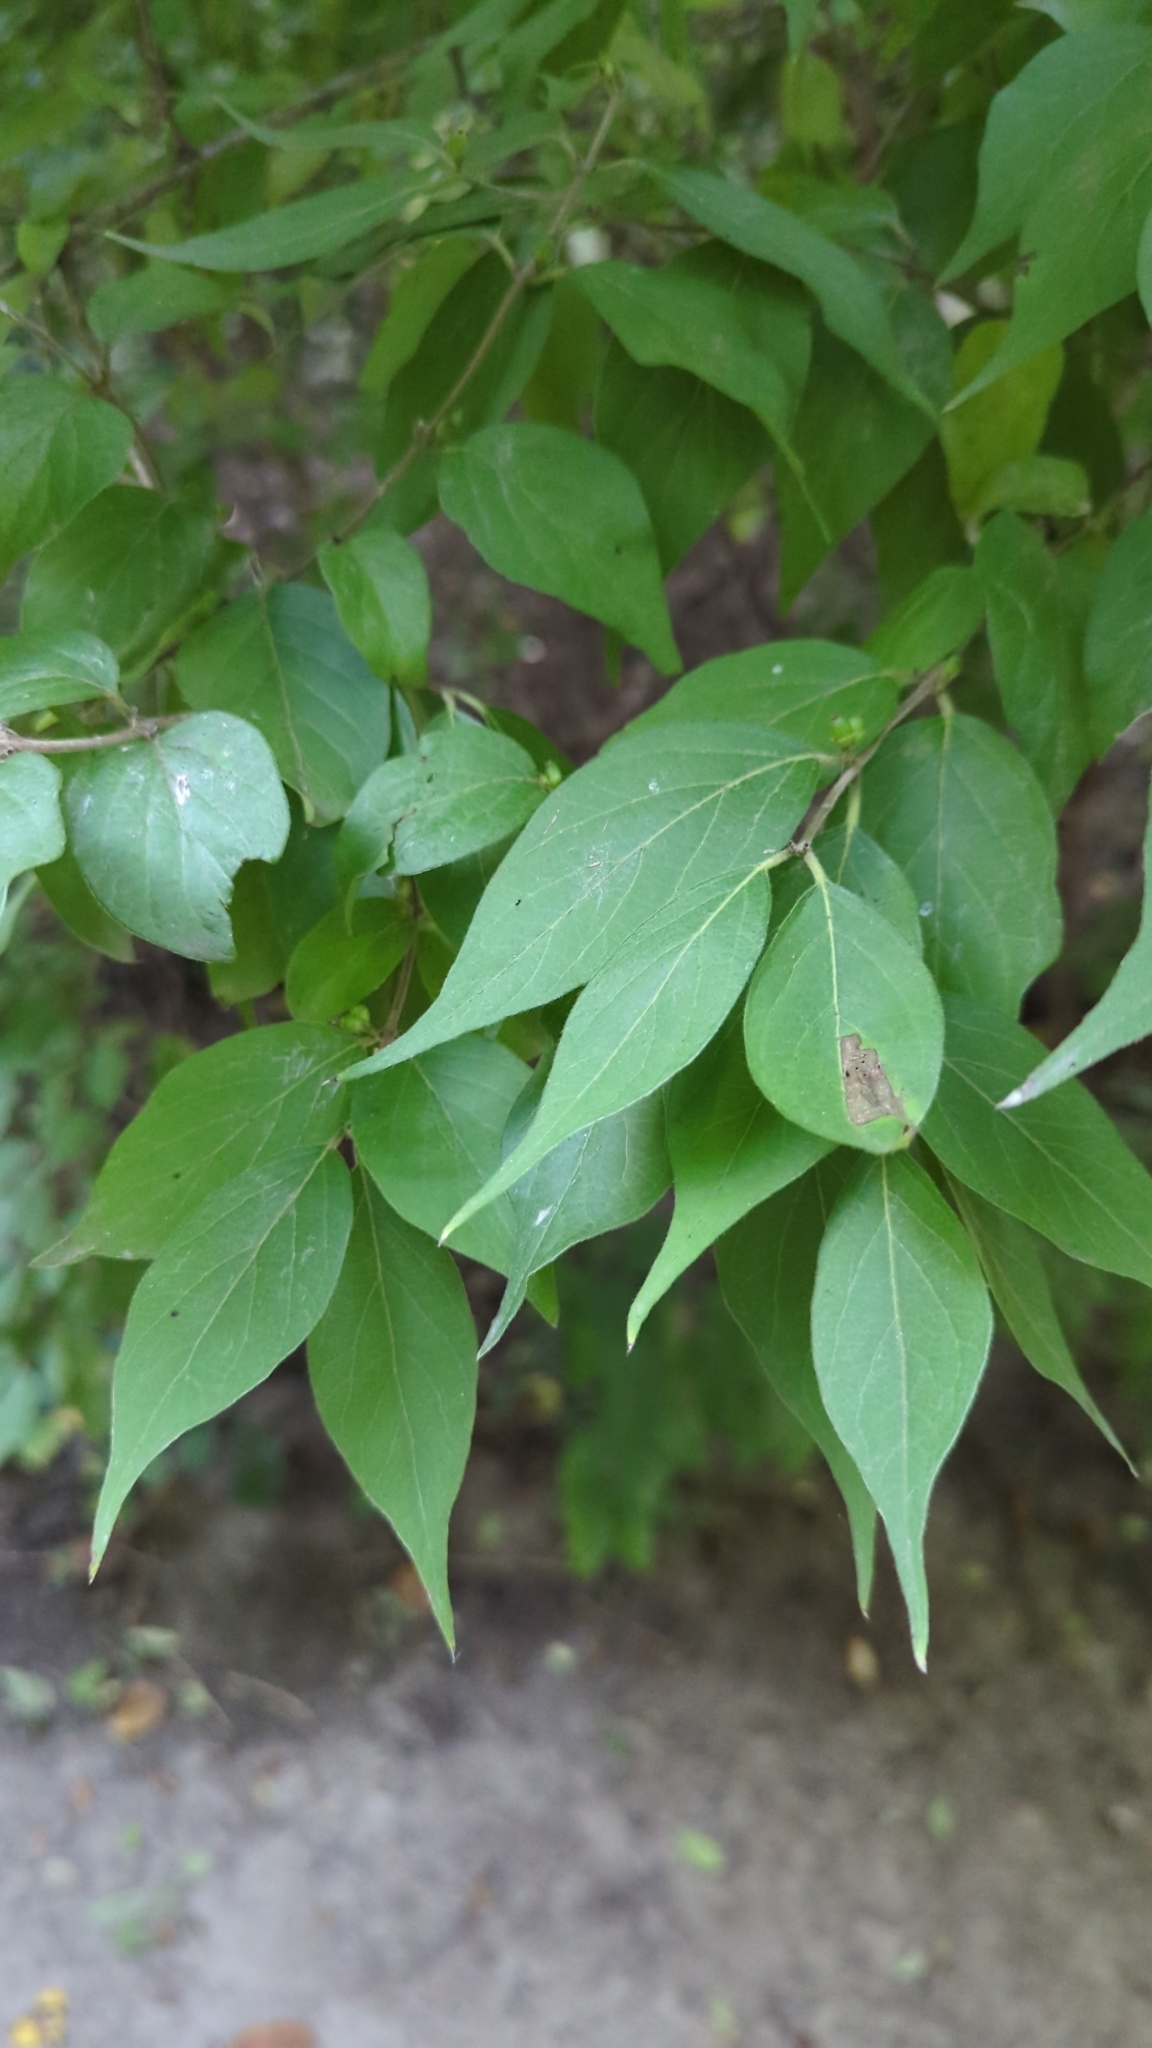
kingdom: Plantae
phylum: Tracheophyta
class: Magnoliopsida
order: Dipsacales
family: Caprifoliaceae
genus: Lonicera
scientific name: Lonicera maackii
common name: Amur honeysuckle
